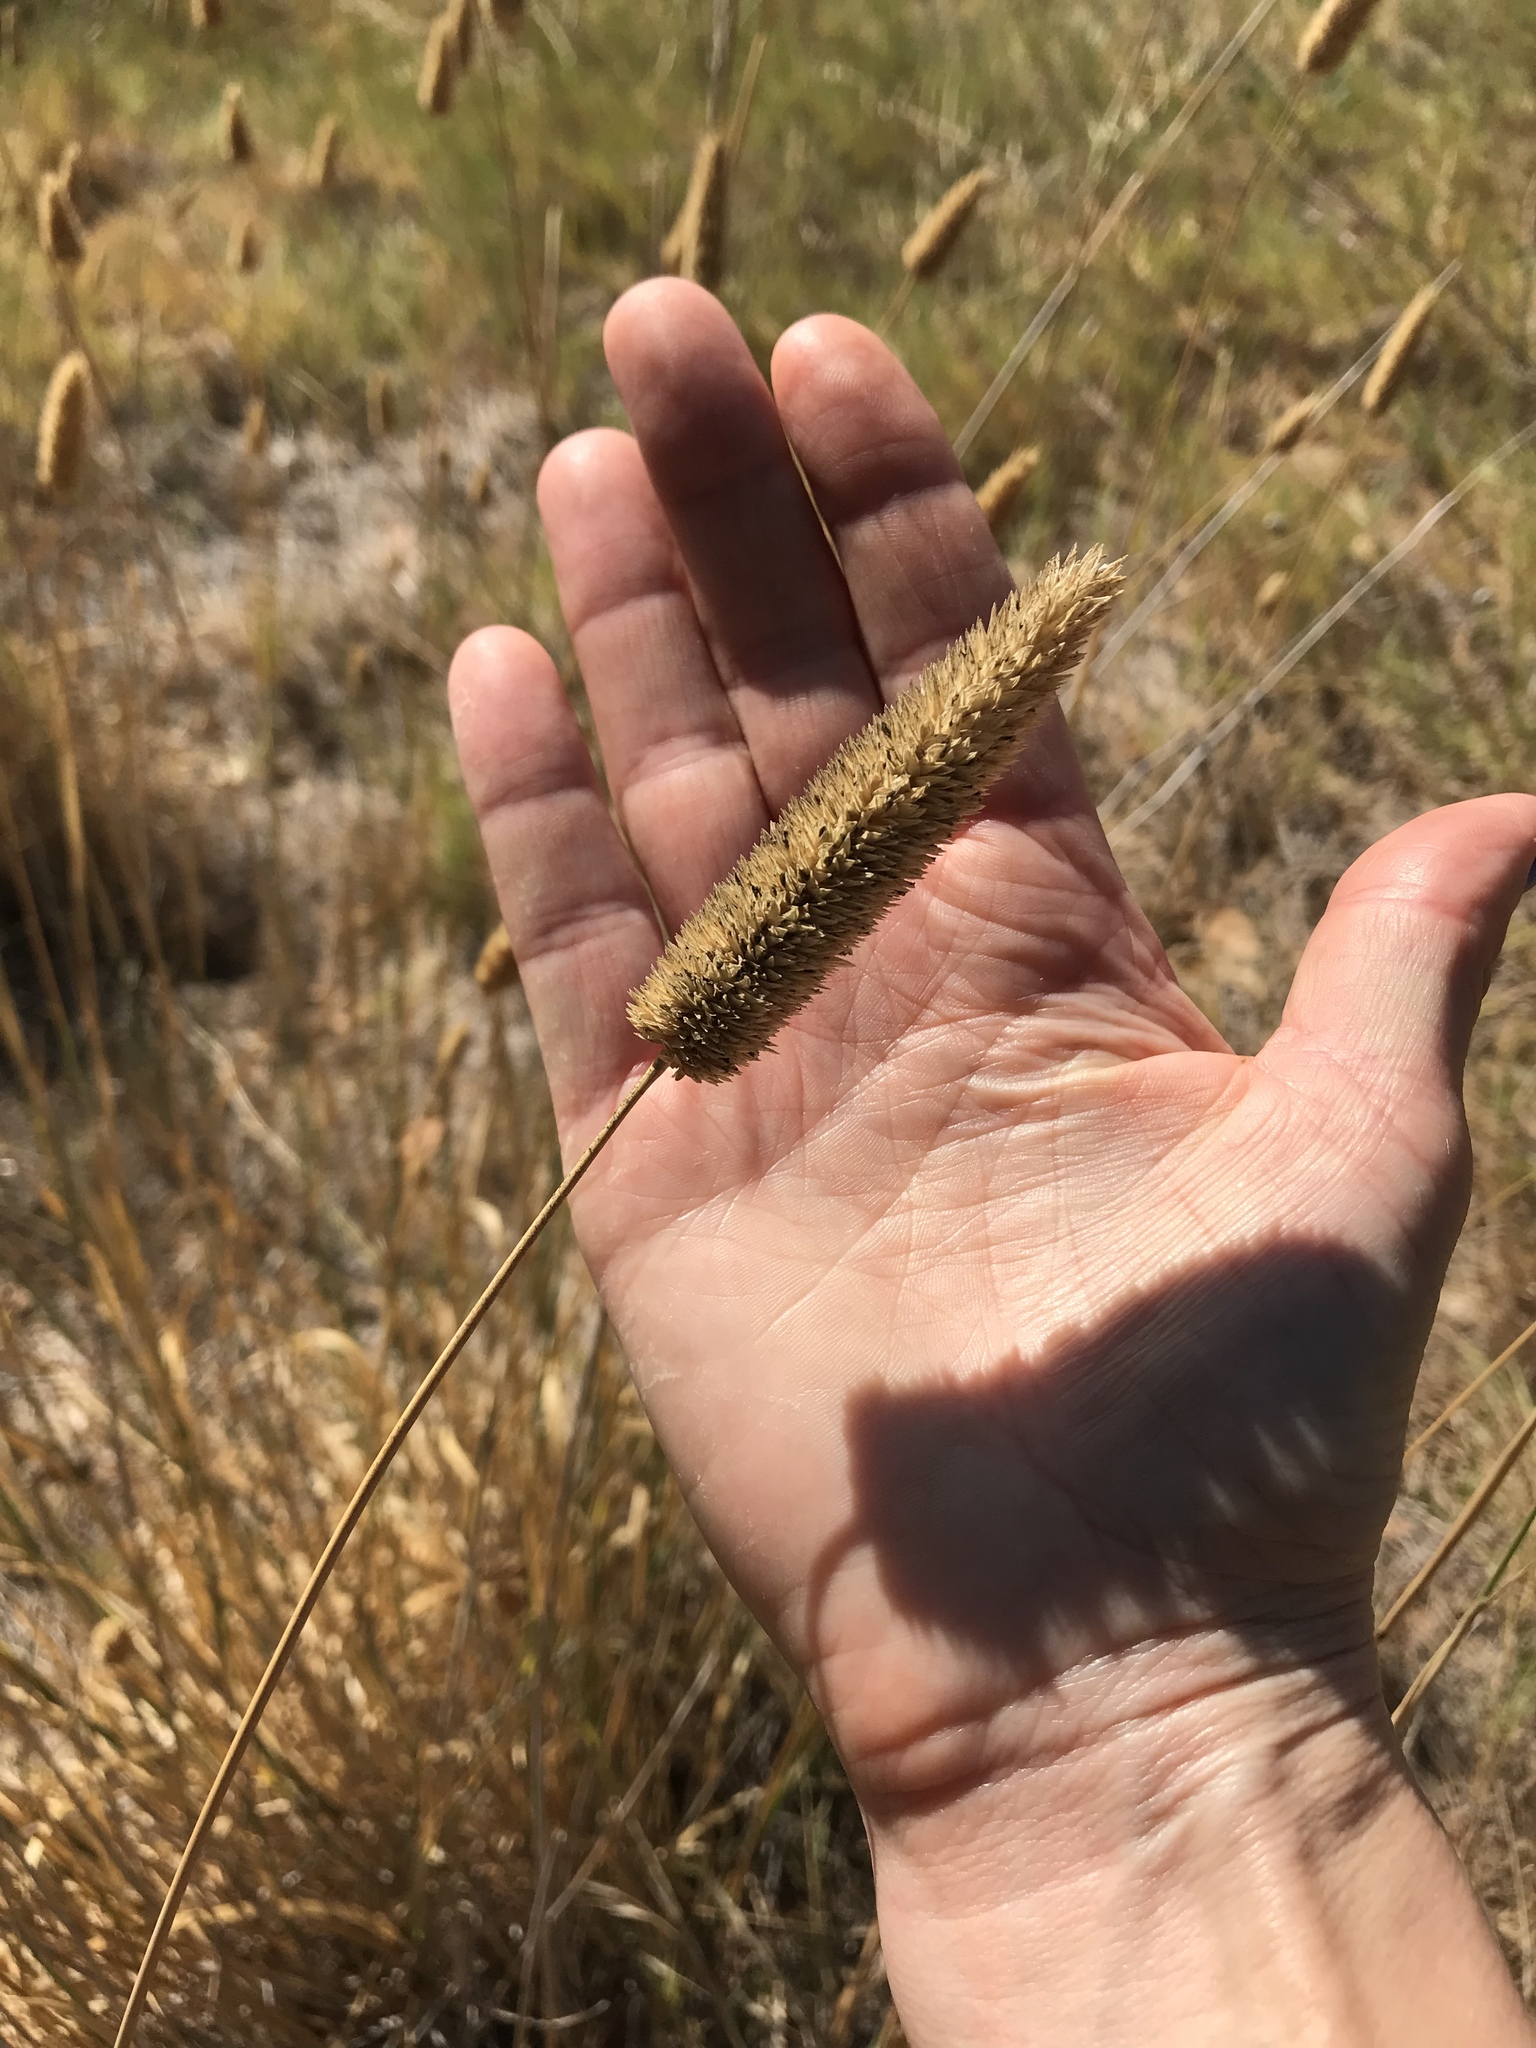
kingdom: Plantae
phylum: Tracheophyta
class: Liliopsida
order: Poales
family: Poaceae
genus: Phalaris
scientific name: Phalaris aquatica
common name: Bulbous canary-grass
